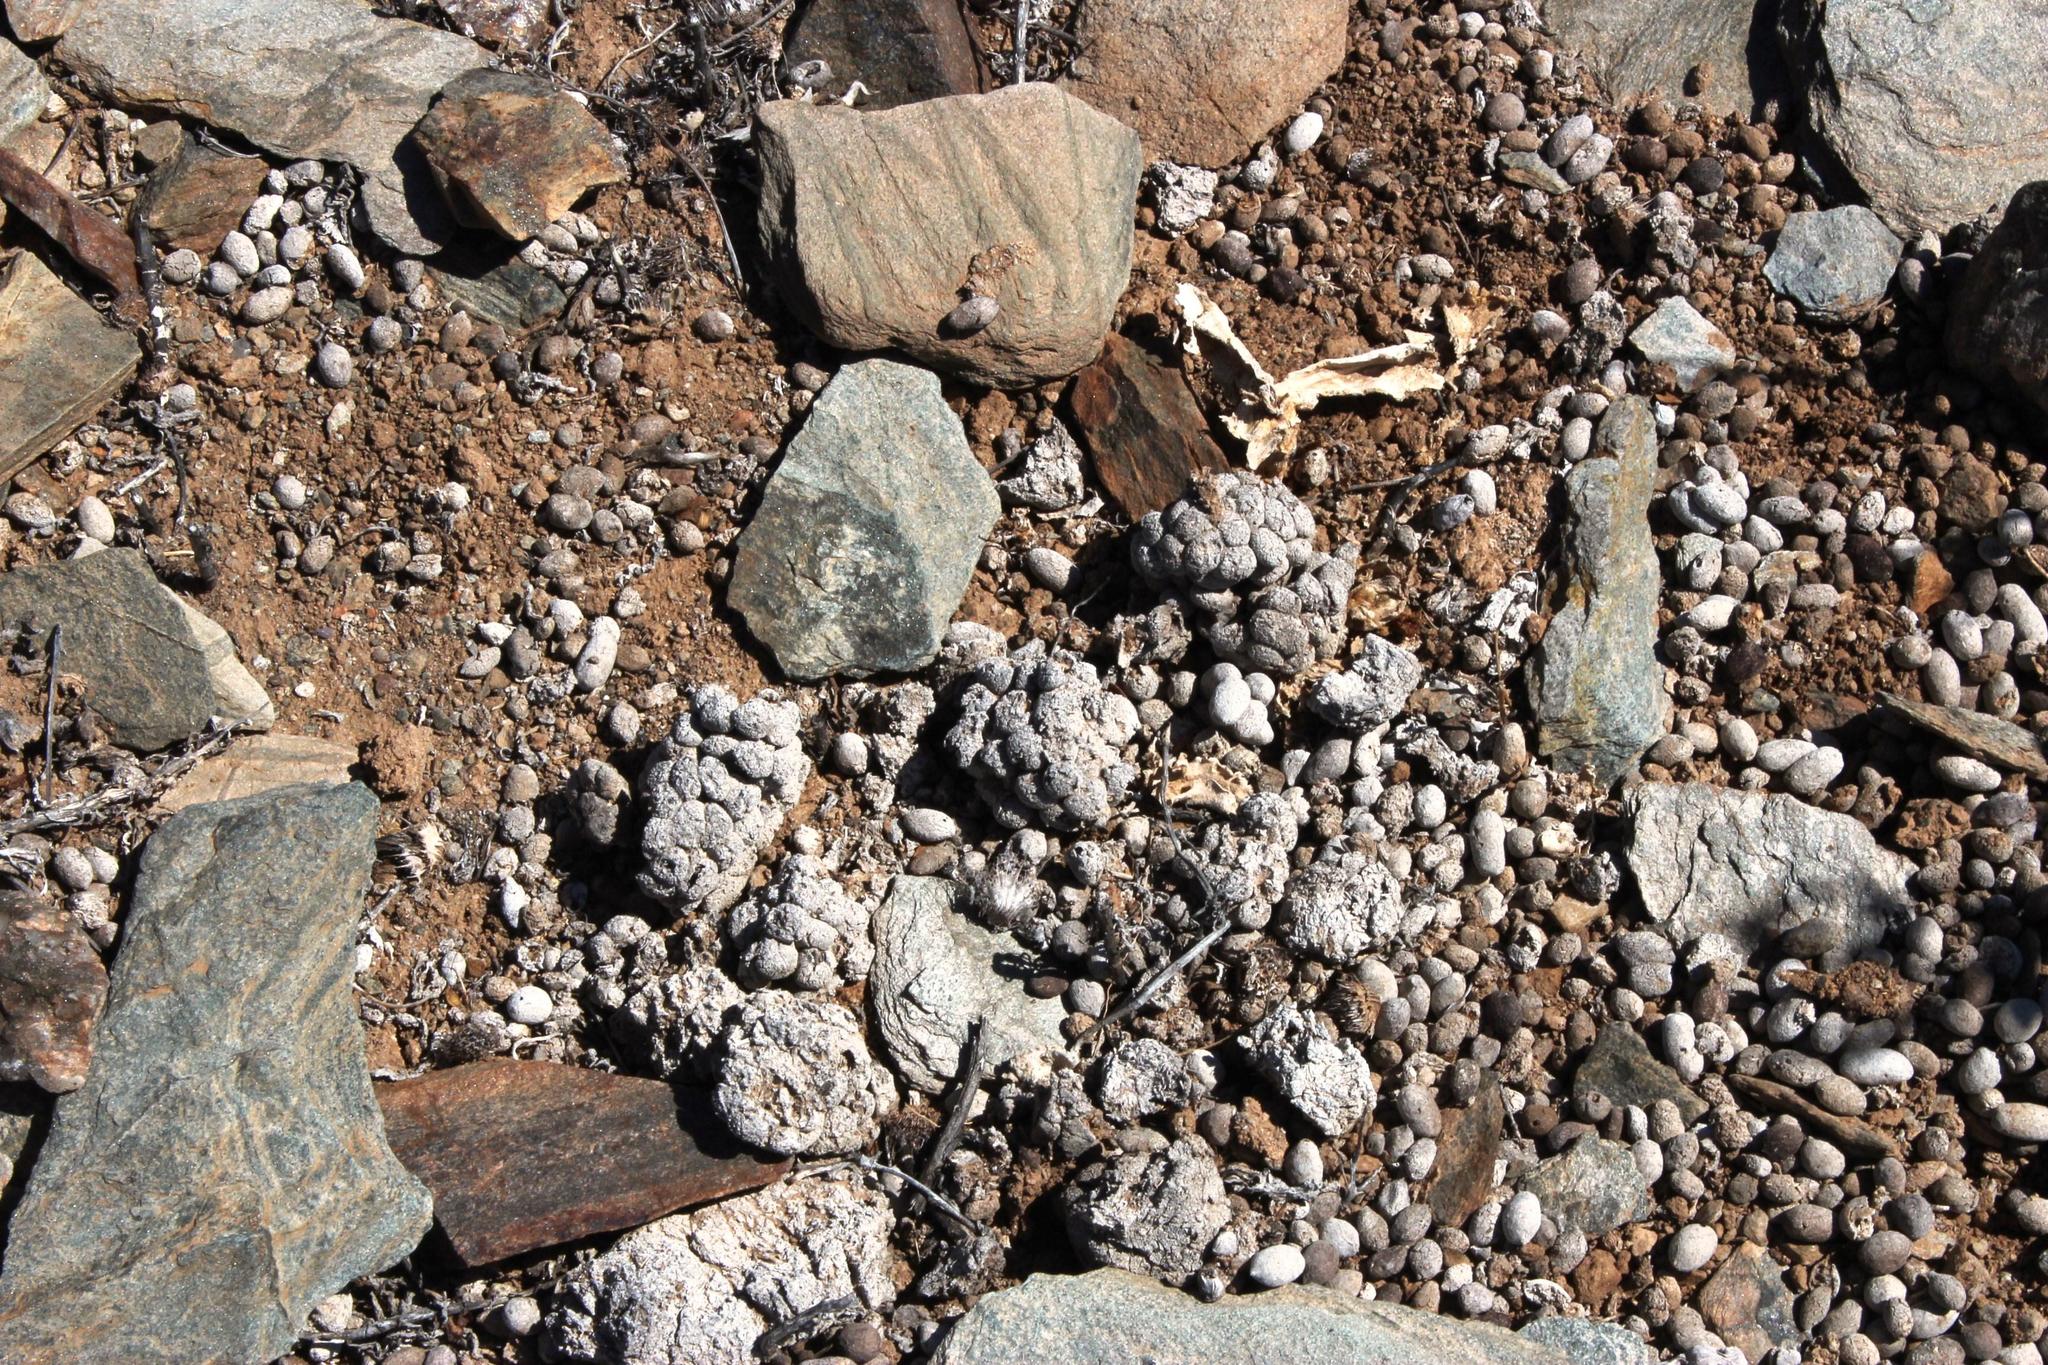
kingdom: Animalia
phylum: Chordata
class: Mammalia
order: Artiodactyla
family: Bovidae
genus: Oreotragus
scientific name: Oreotragus oreotragus
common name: Klipspringer
